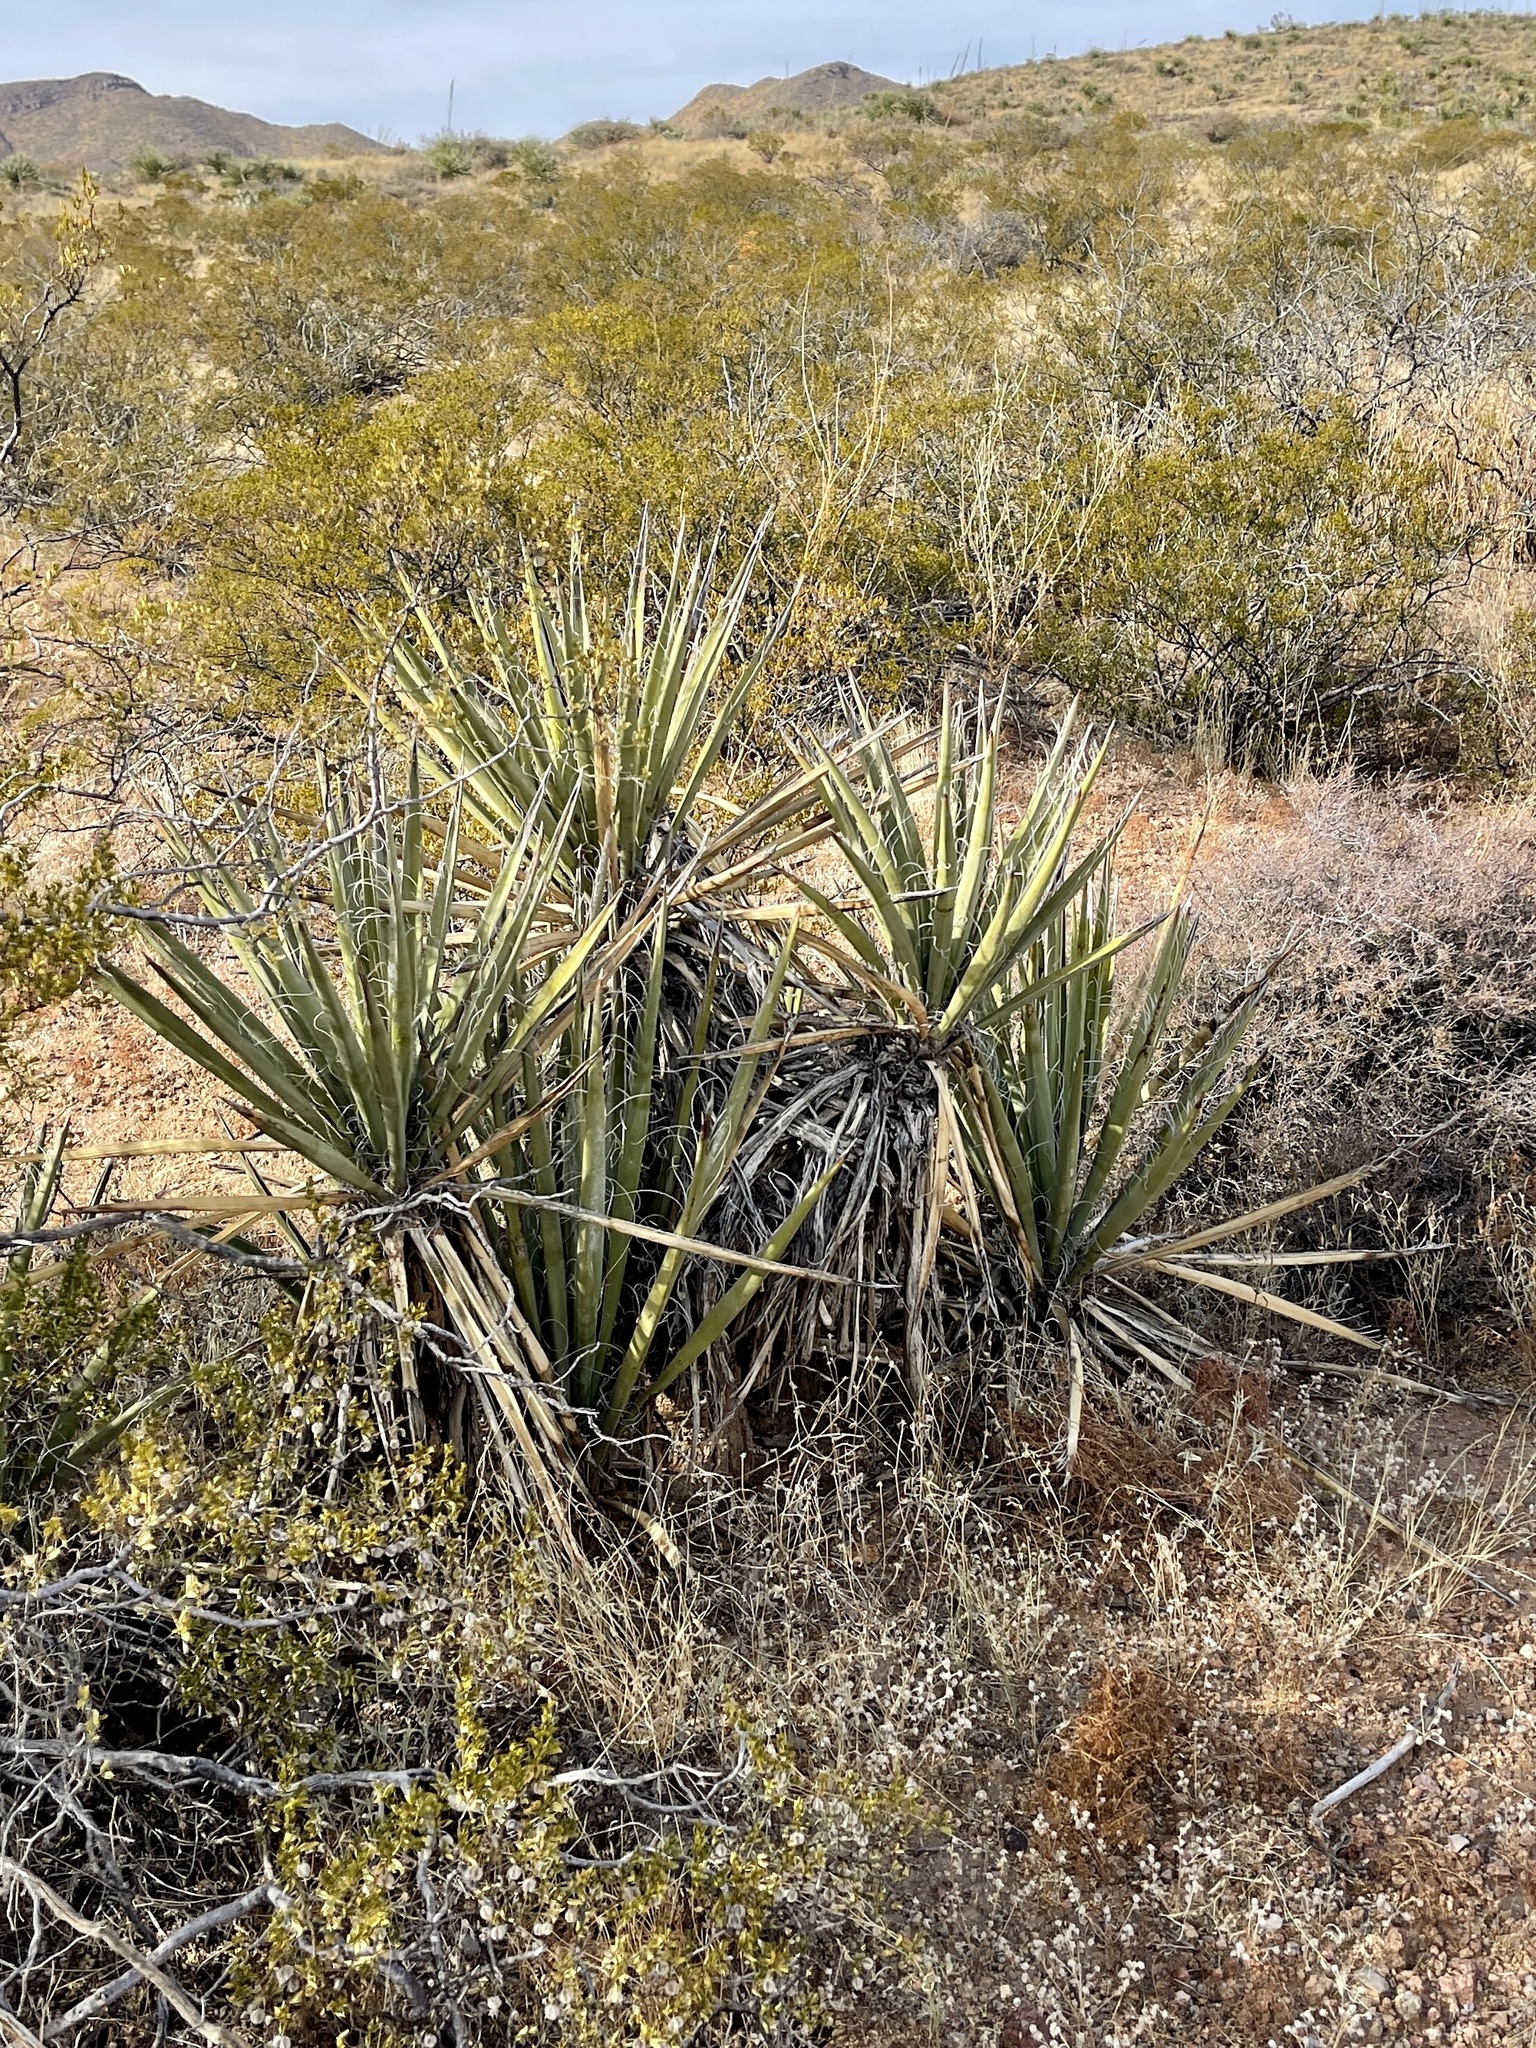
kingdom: Plantae
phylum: Tracheophyta
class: Liliopsida
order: Asparagales
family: Asparagaceae
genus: Yucca
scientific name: Yucca baccata
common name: Banana yucca
